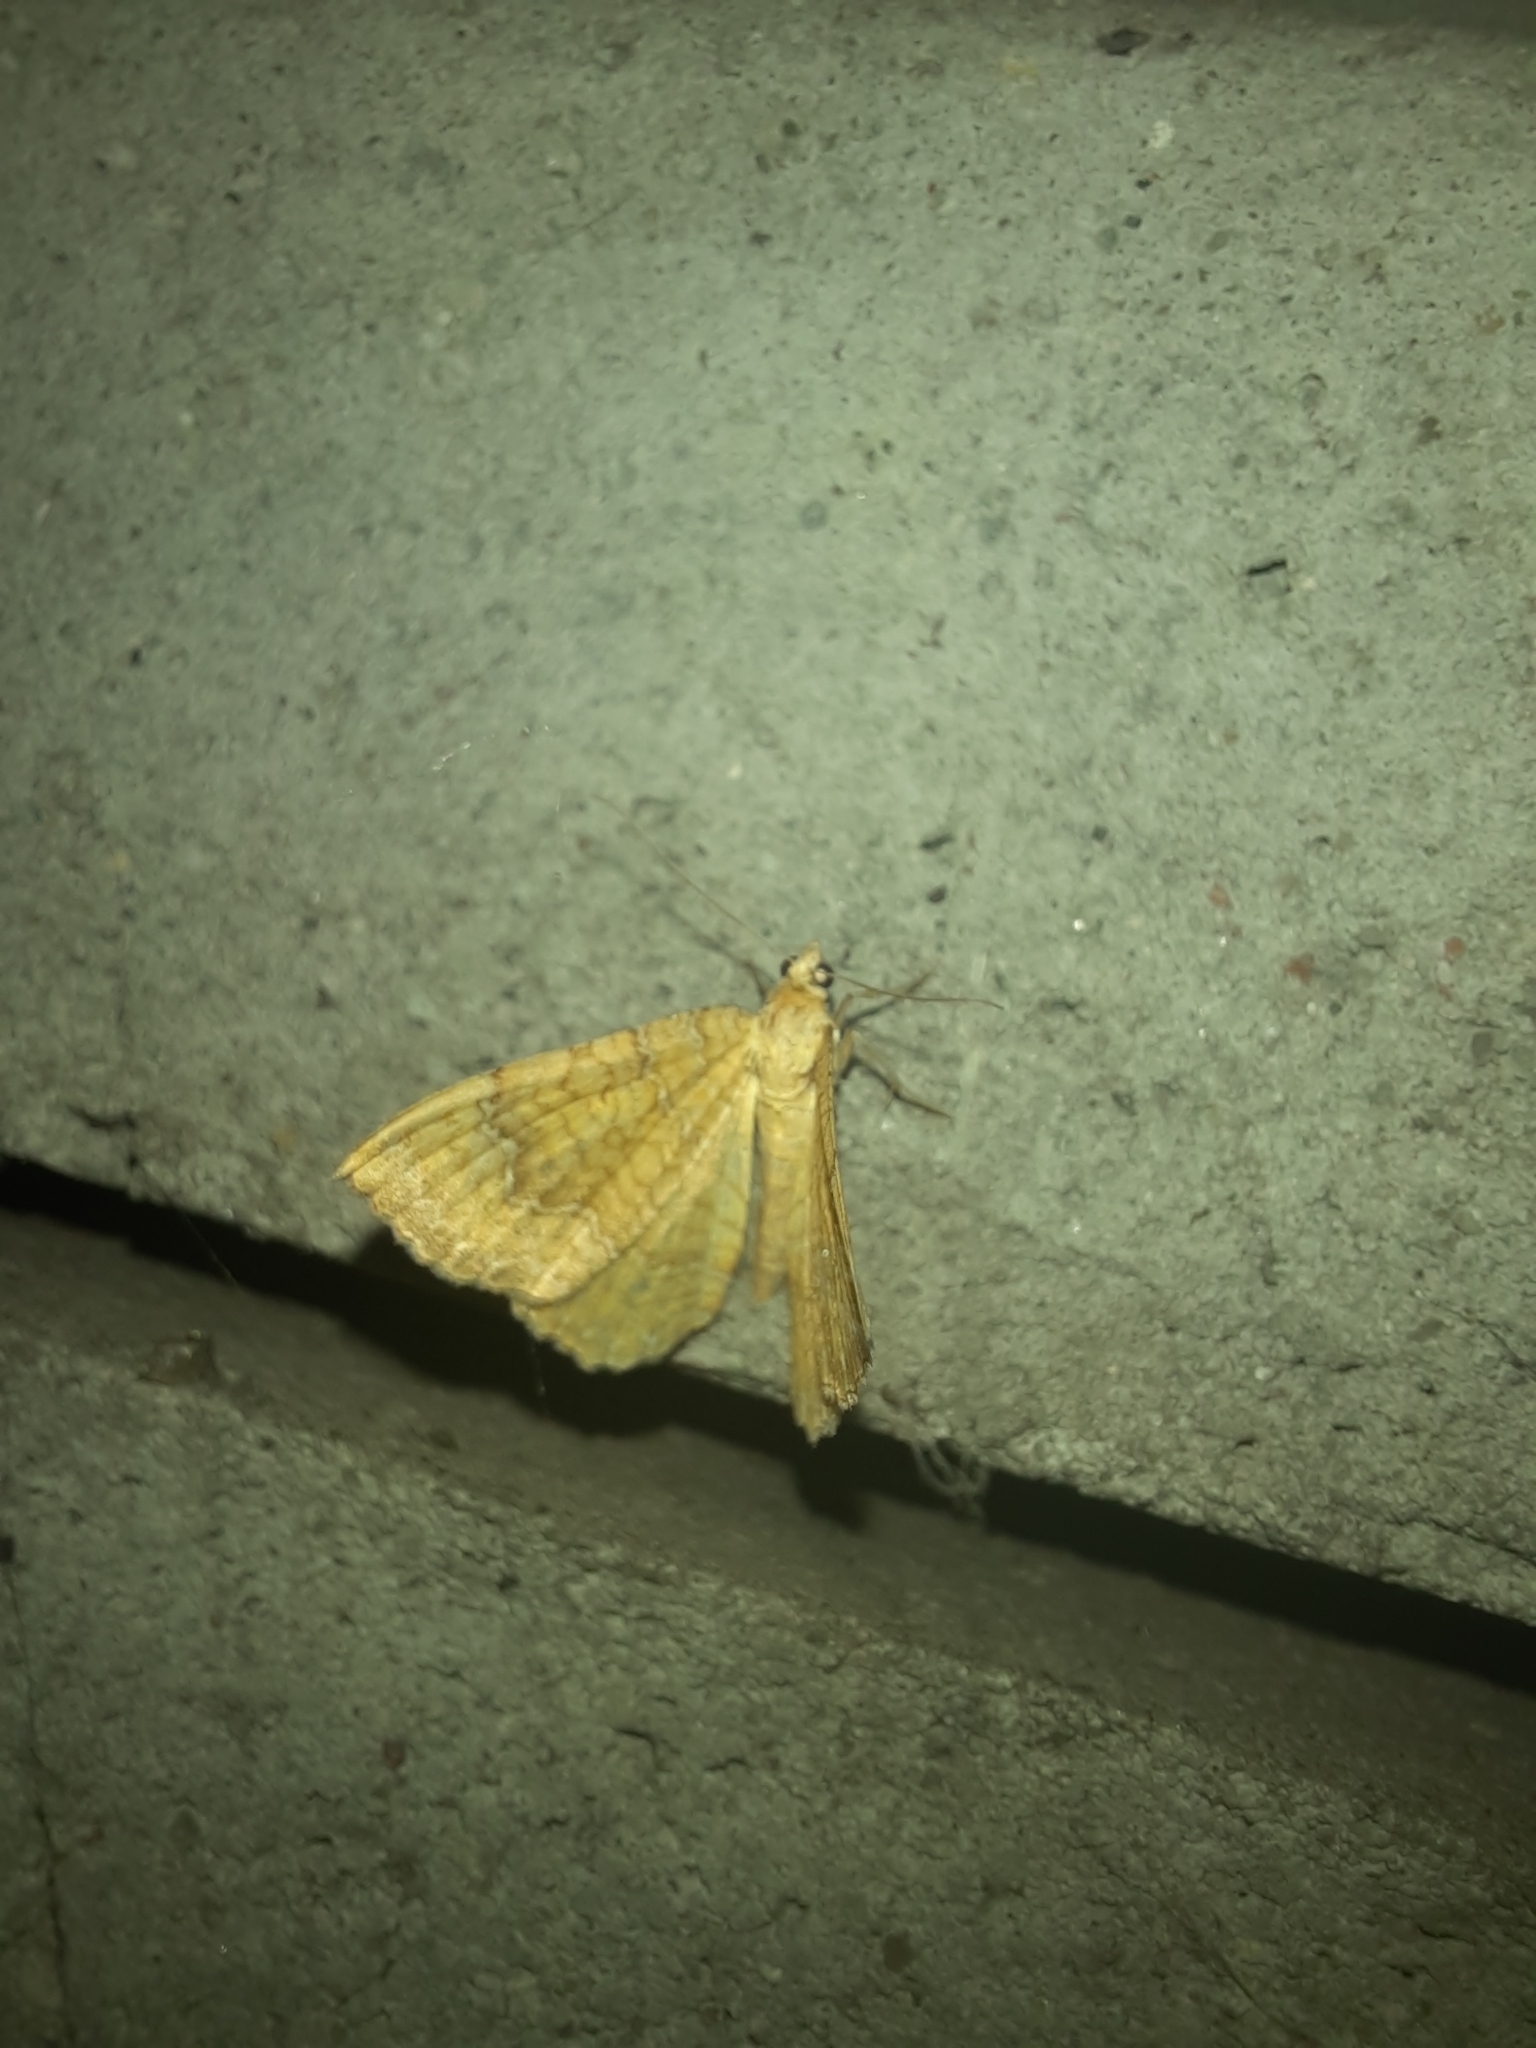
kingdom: Animalia
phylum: Arthropoda
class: Insecta
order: Lepidoptera
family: Geometridae
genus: Camptogramma
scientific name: Camptogramma bilineata
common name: Yellow shell
